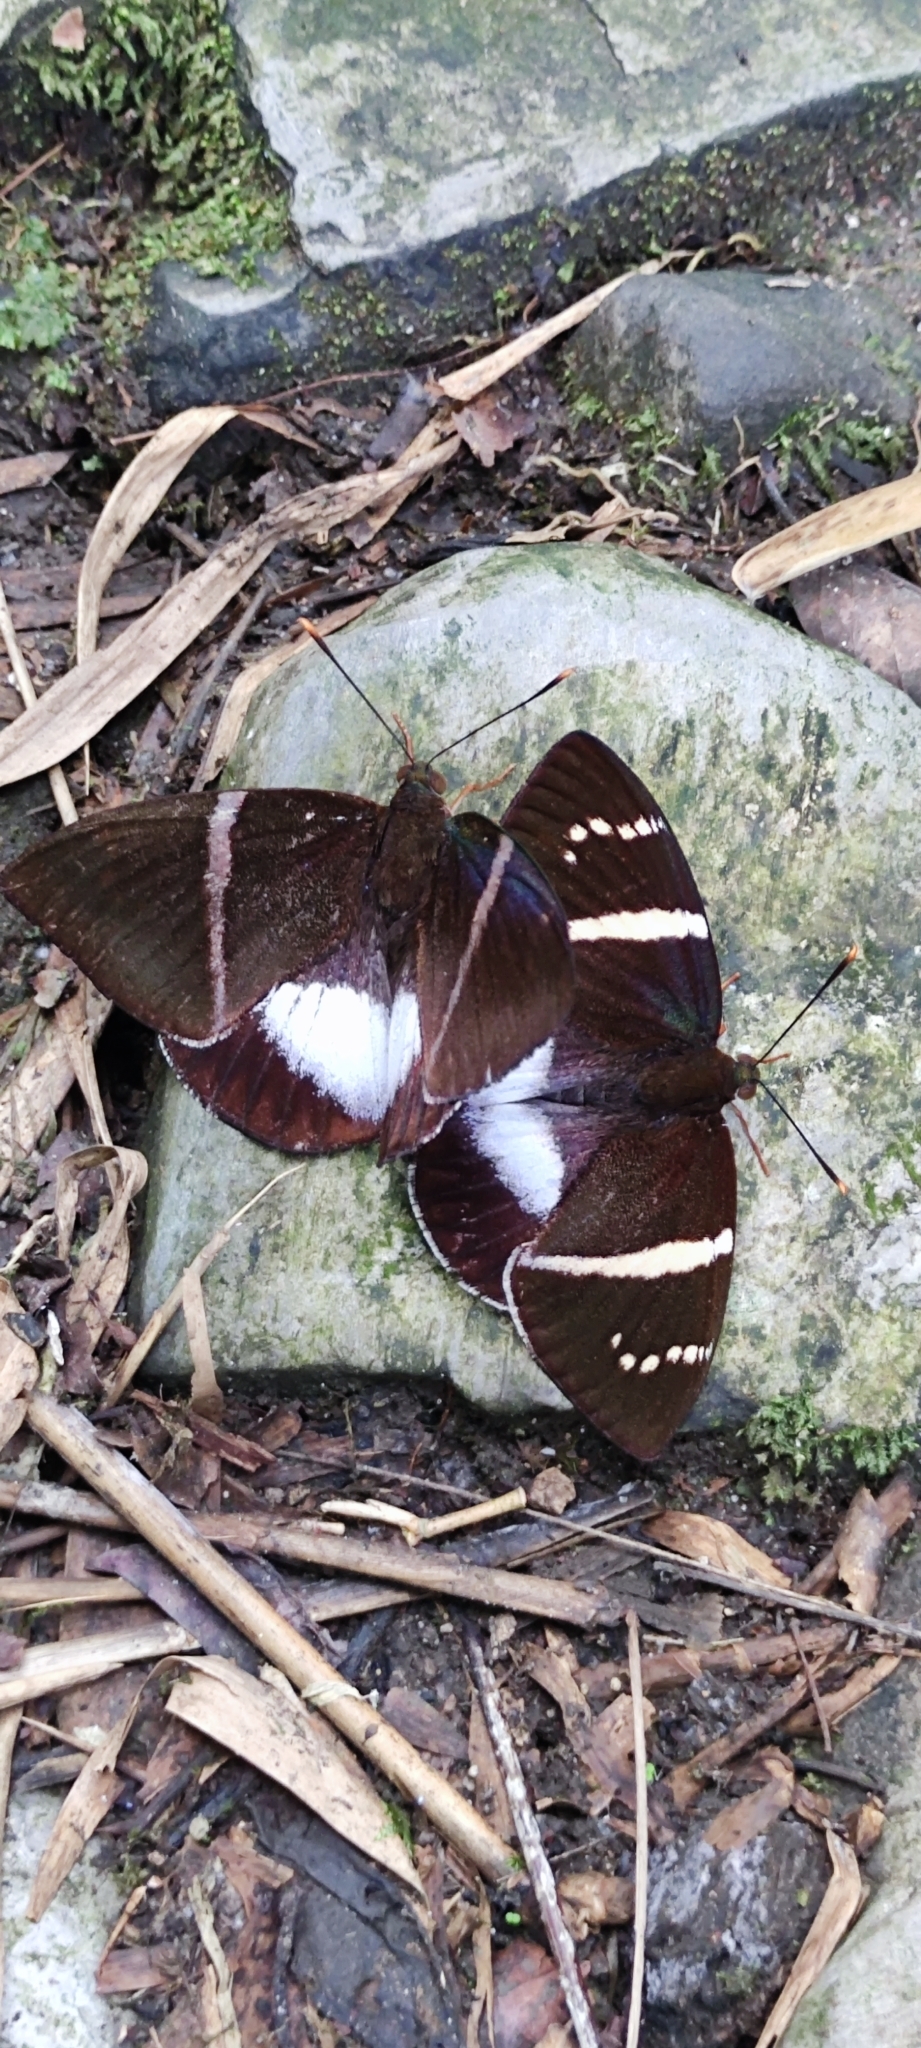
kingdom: Animalia
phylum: Arthropoda
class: Insecta
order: Lepidoptera
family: Castniidae
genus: Castniomera
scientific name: Castniomera atymnius
